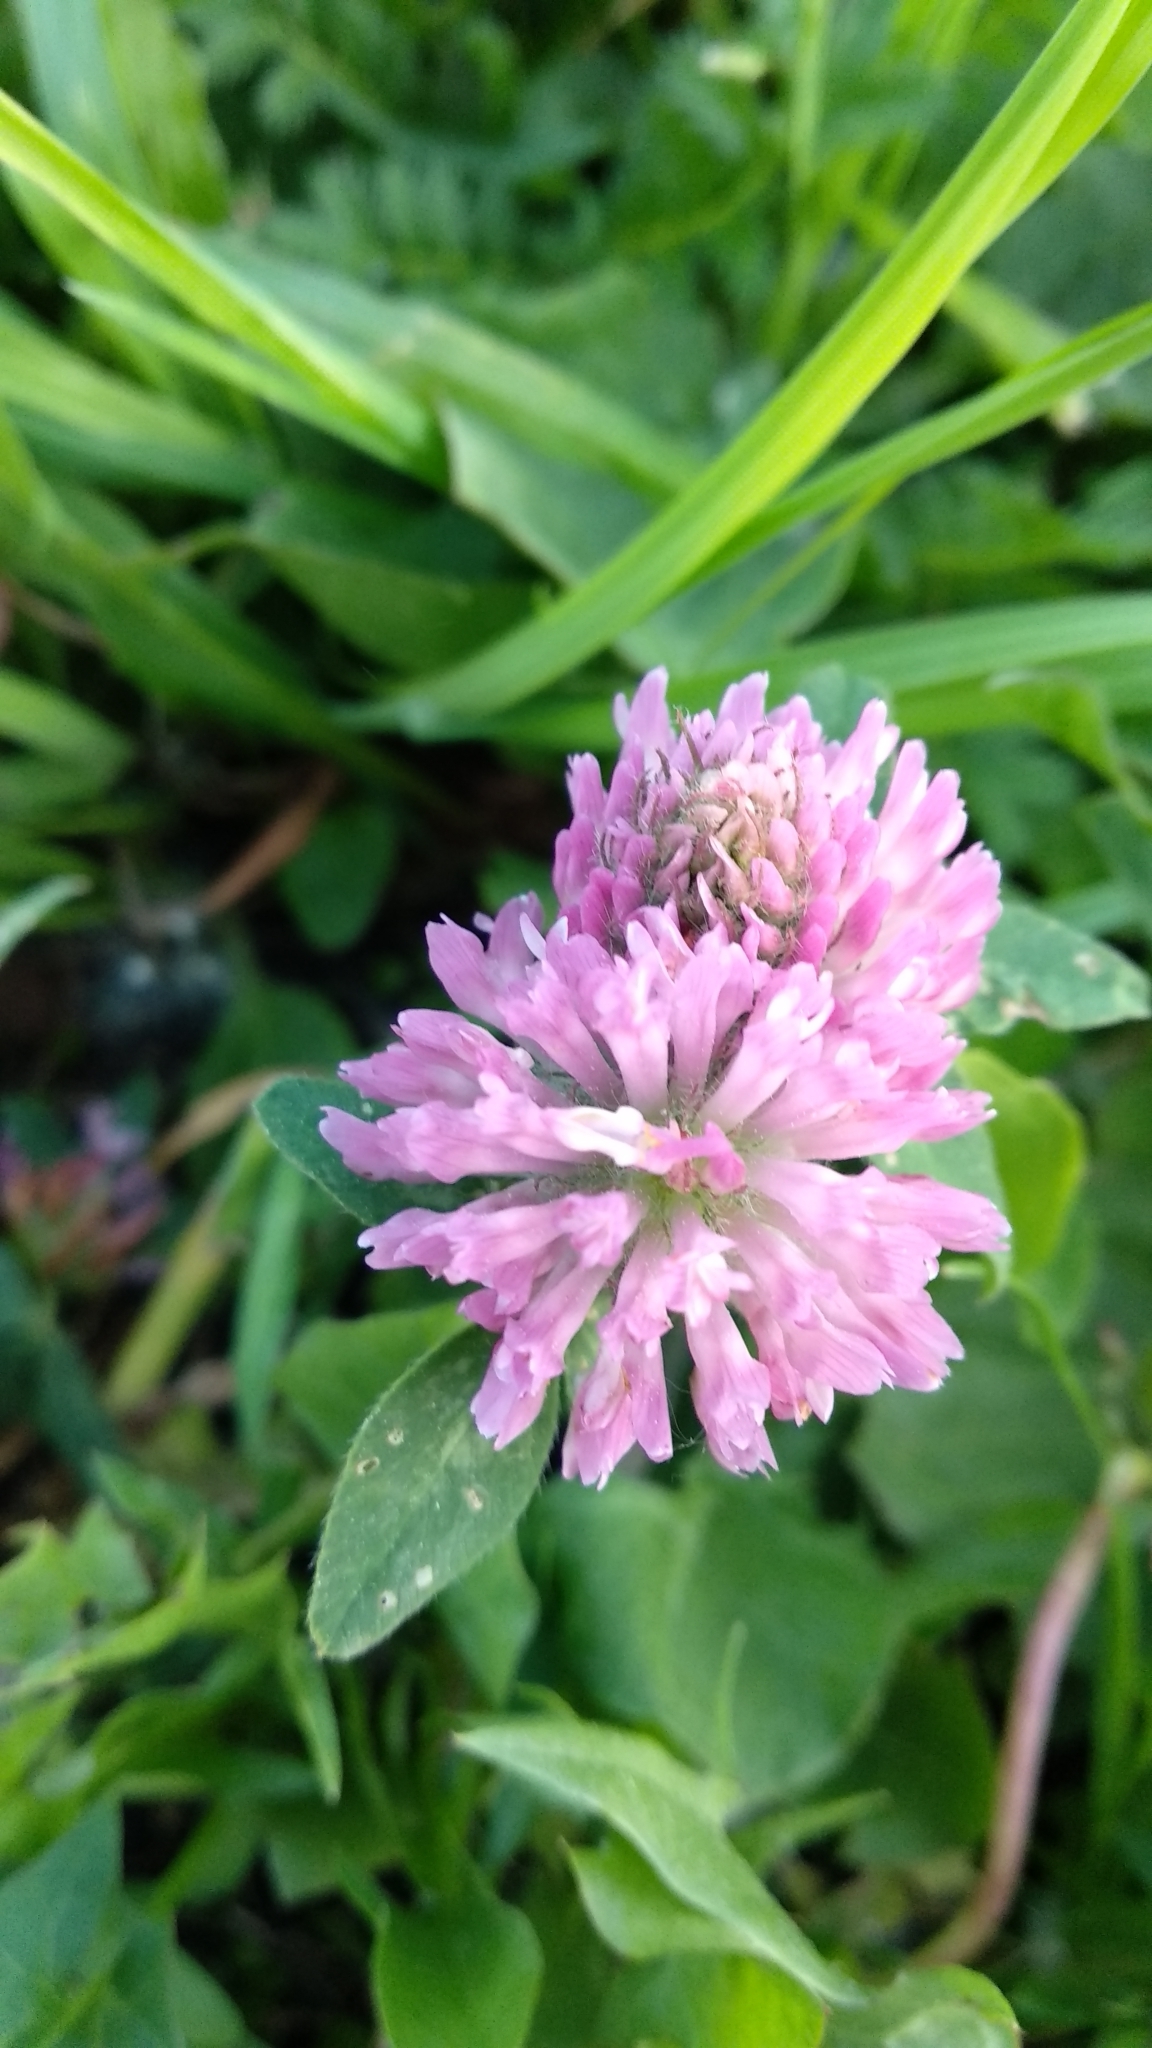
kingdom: Plantae
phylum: Tracheophyta
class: Magnoliopsida
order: Fabales
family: Fabaceae
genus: Trifolium
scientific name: Trifolium pratense
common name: Red clover
